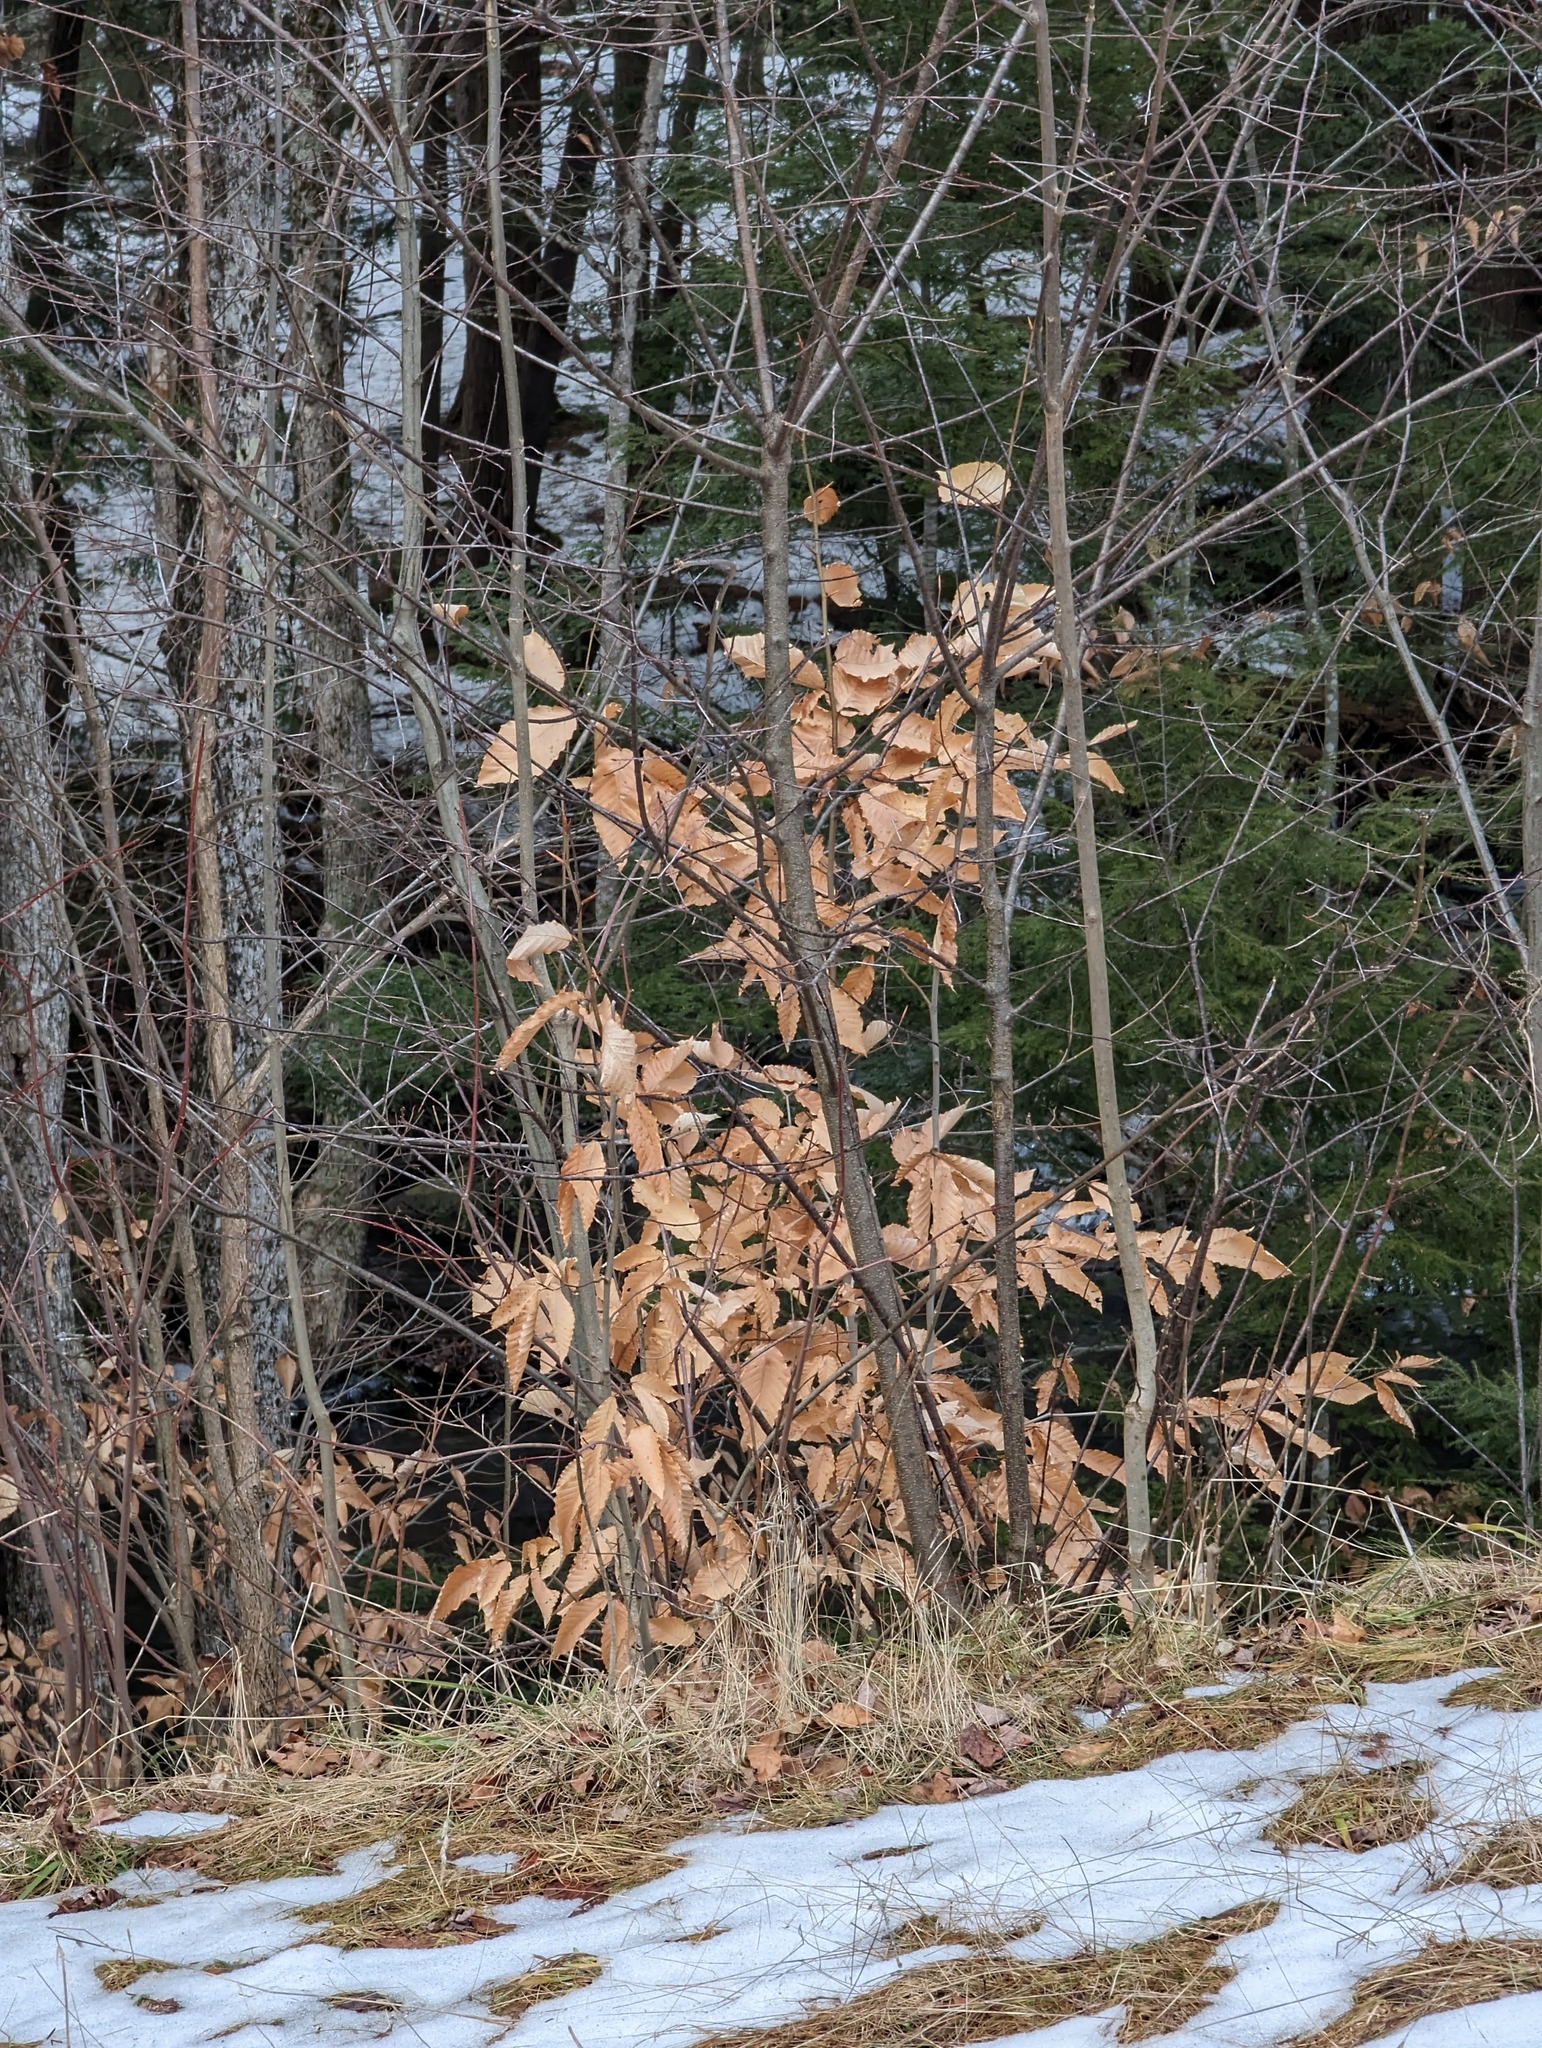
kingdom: Plantae
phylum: Tracheophyta
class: Magnoliopsida
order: Fagales
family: Fagaceae
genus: Fagus
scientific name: Fagus grandifolia
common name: American beech
